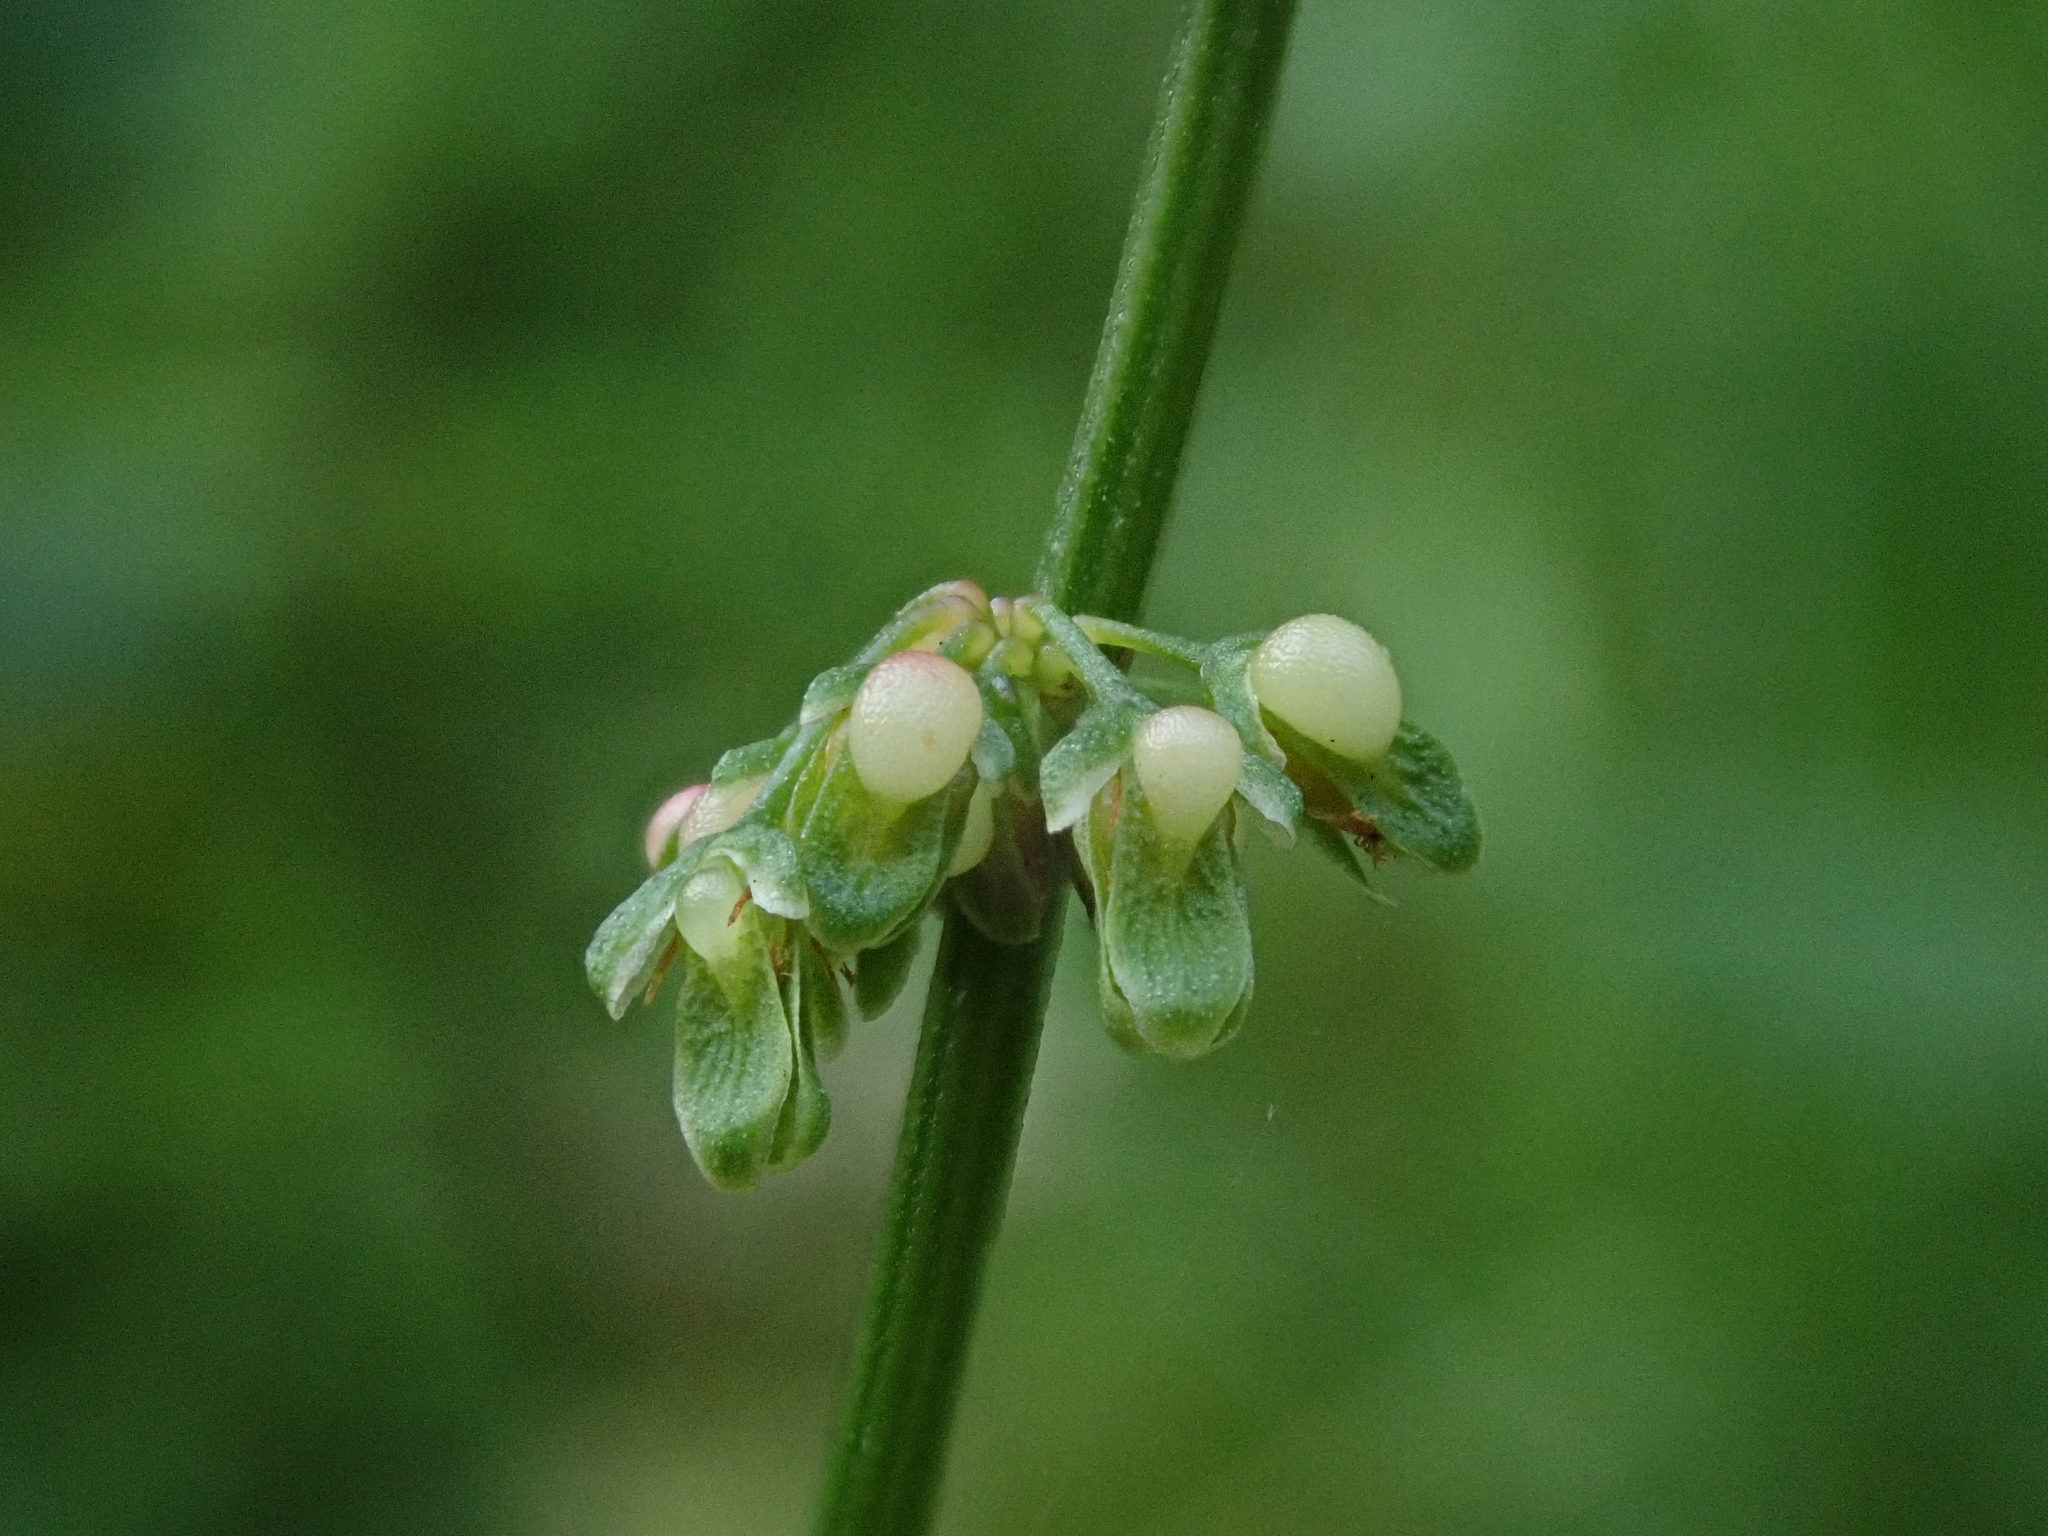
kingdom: Plantae
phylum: Tracheophyta
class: Magnoliopsida
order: Caryophyllales
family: Polygonaceae
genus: Rumex
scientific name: Rumex sanguineus
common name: Wood dock
